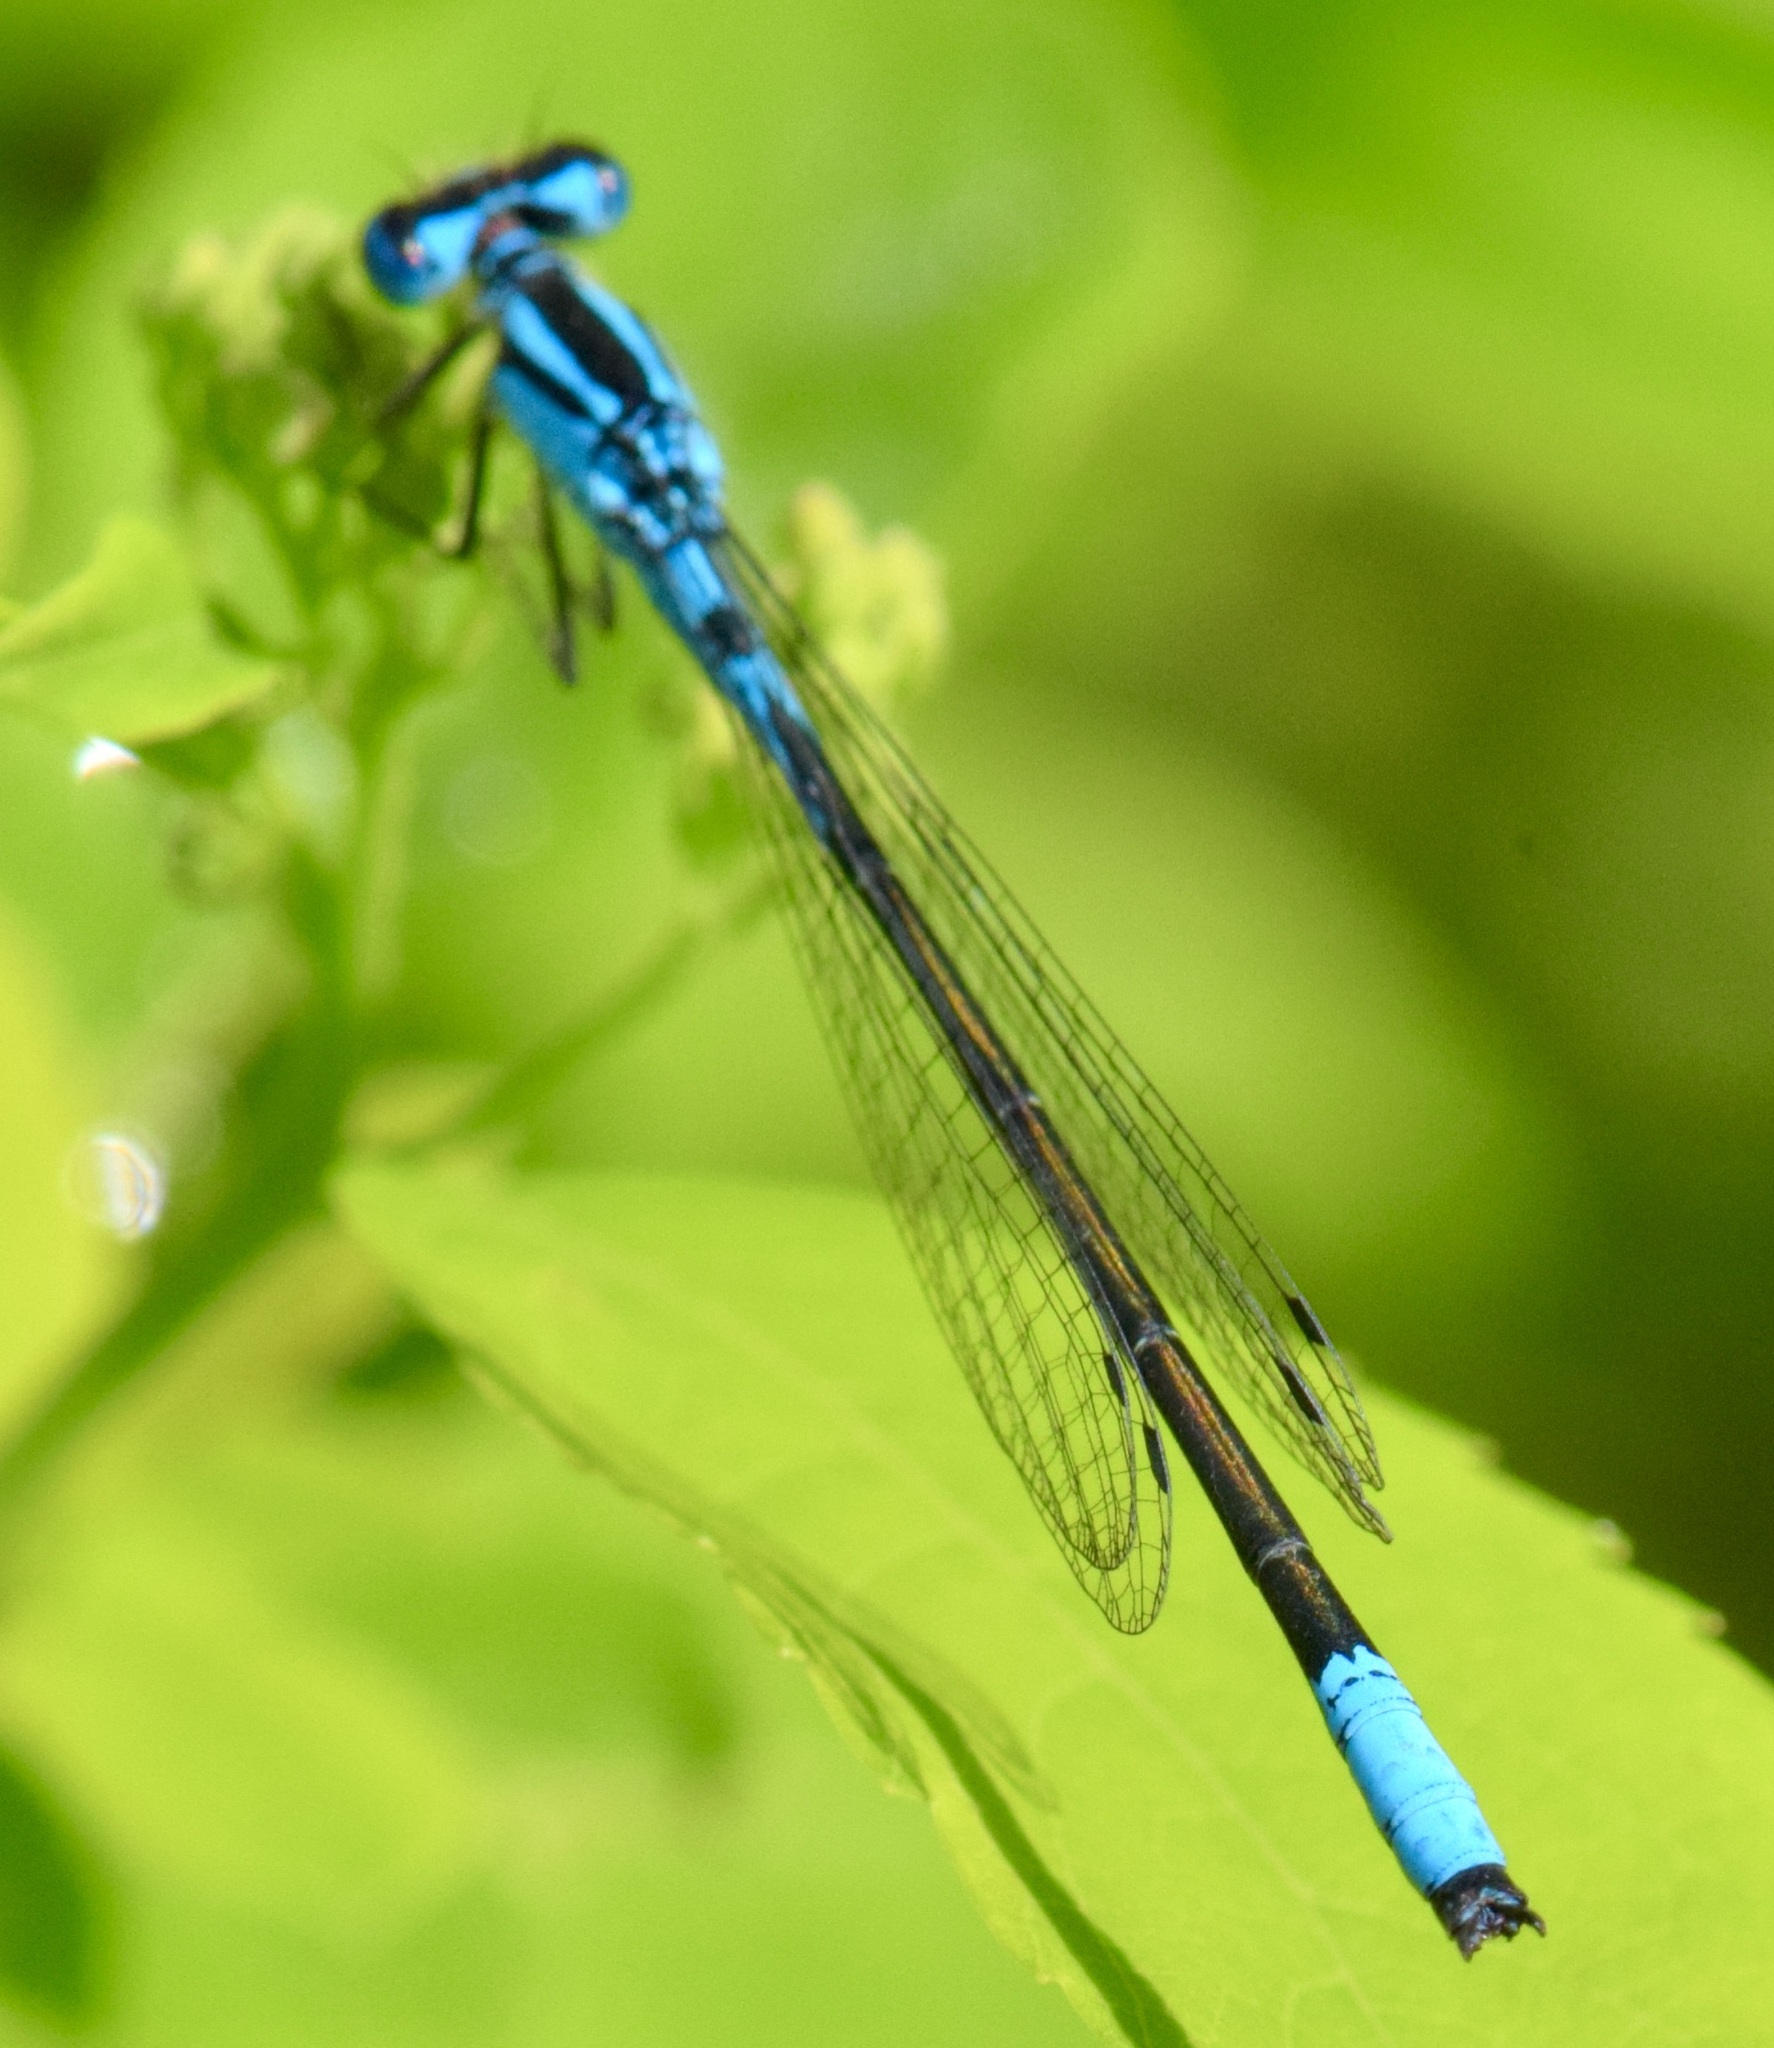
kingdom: Animalia
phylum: Arthropoda
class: Insecta
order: Odonata
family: Coenagrionidae
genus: Enallagma
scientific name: Enallagma aspersum
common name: Azure bluet
